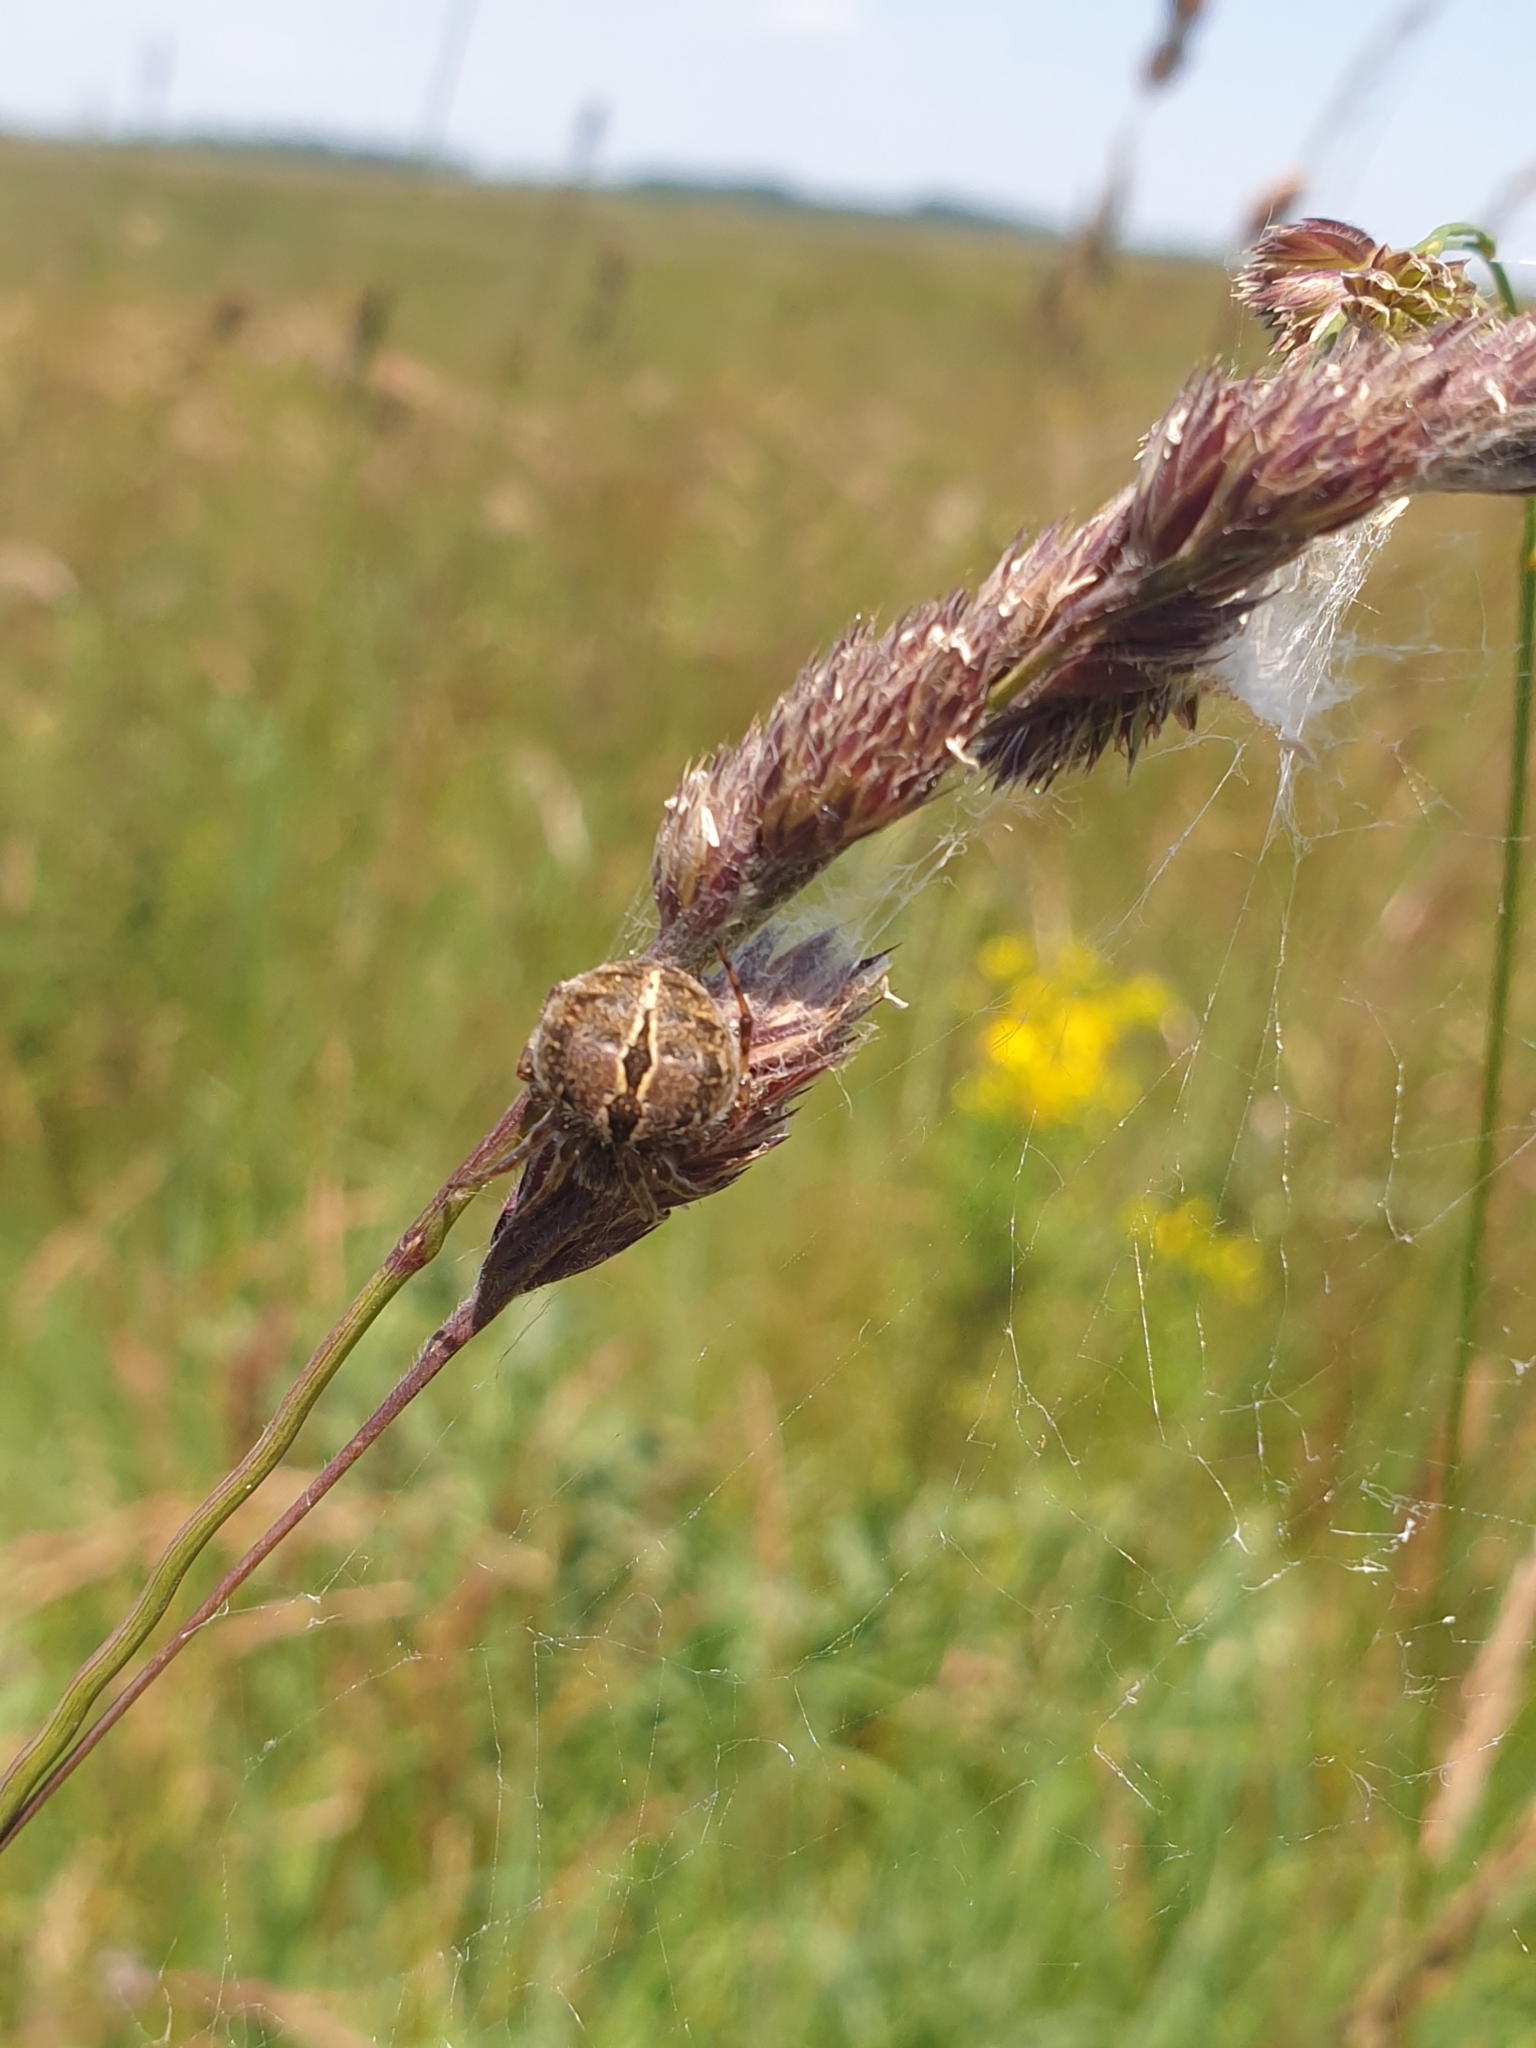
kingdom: Animalia
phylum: Arthropoda
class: Arachnida
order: Araneae
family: Araneidae
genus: Agalenatea
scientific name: Agalenatea redii
